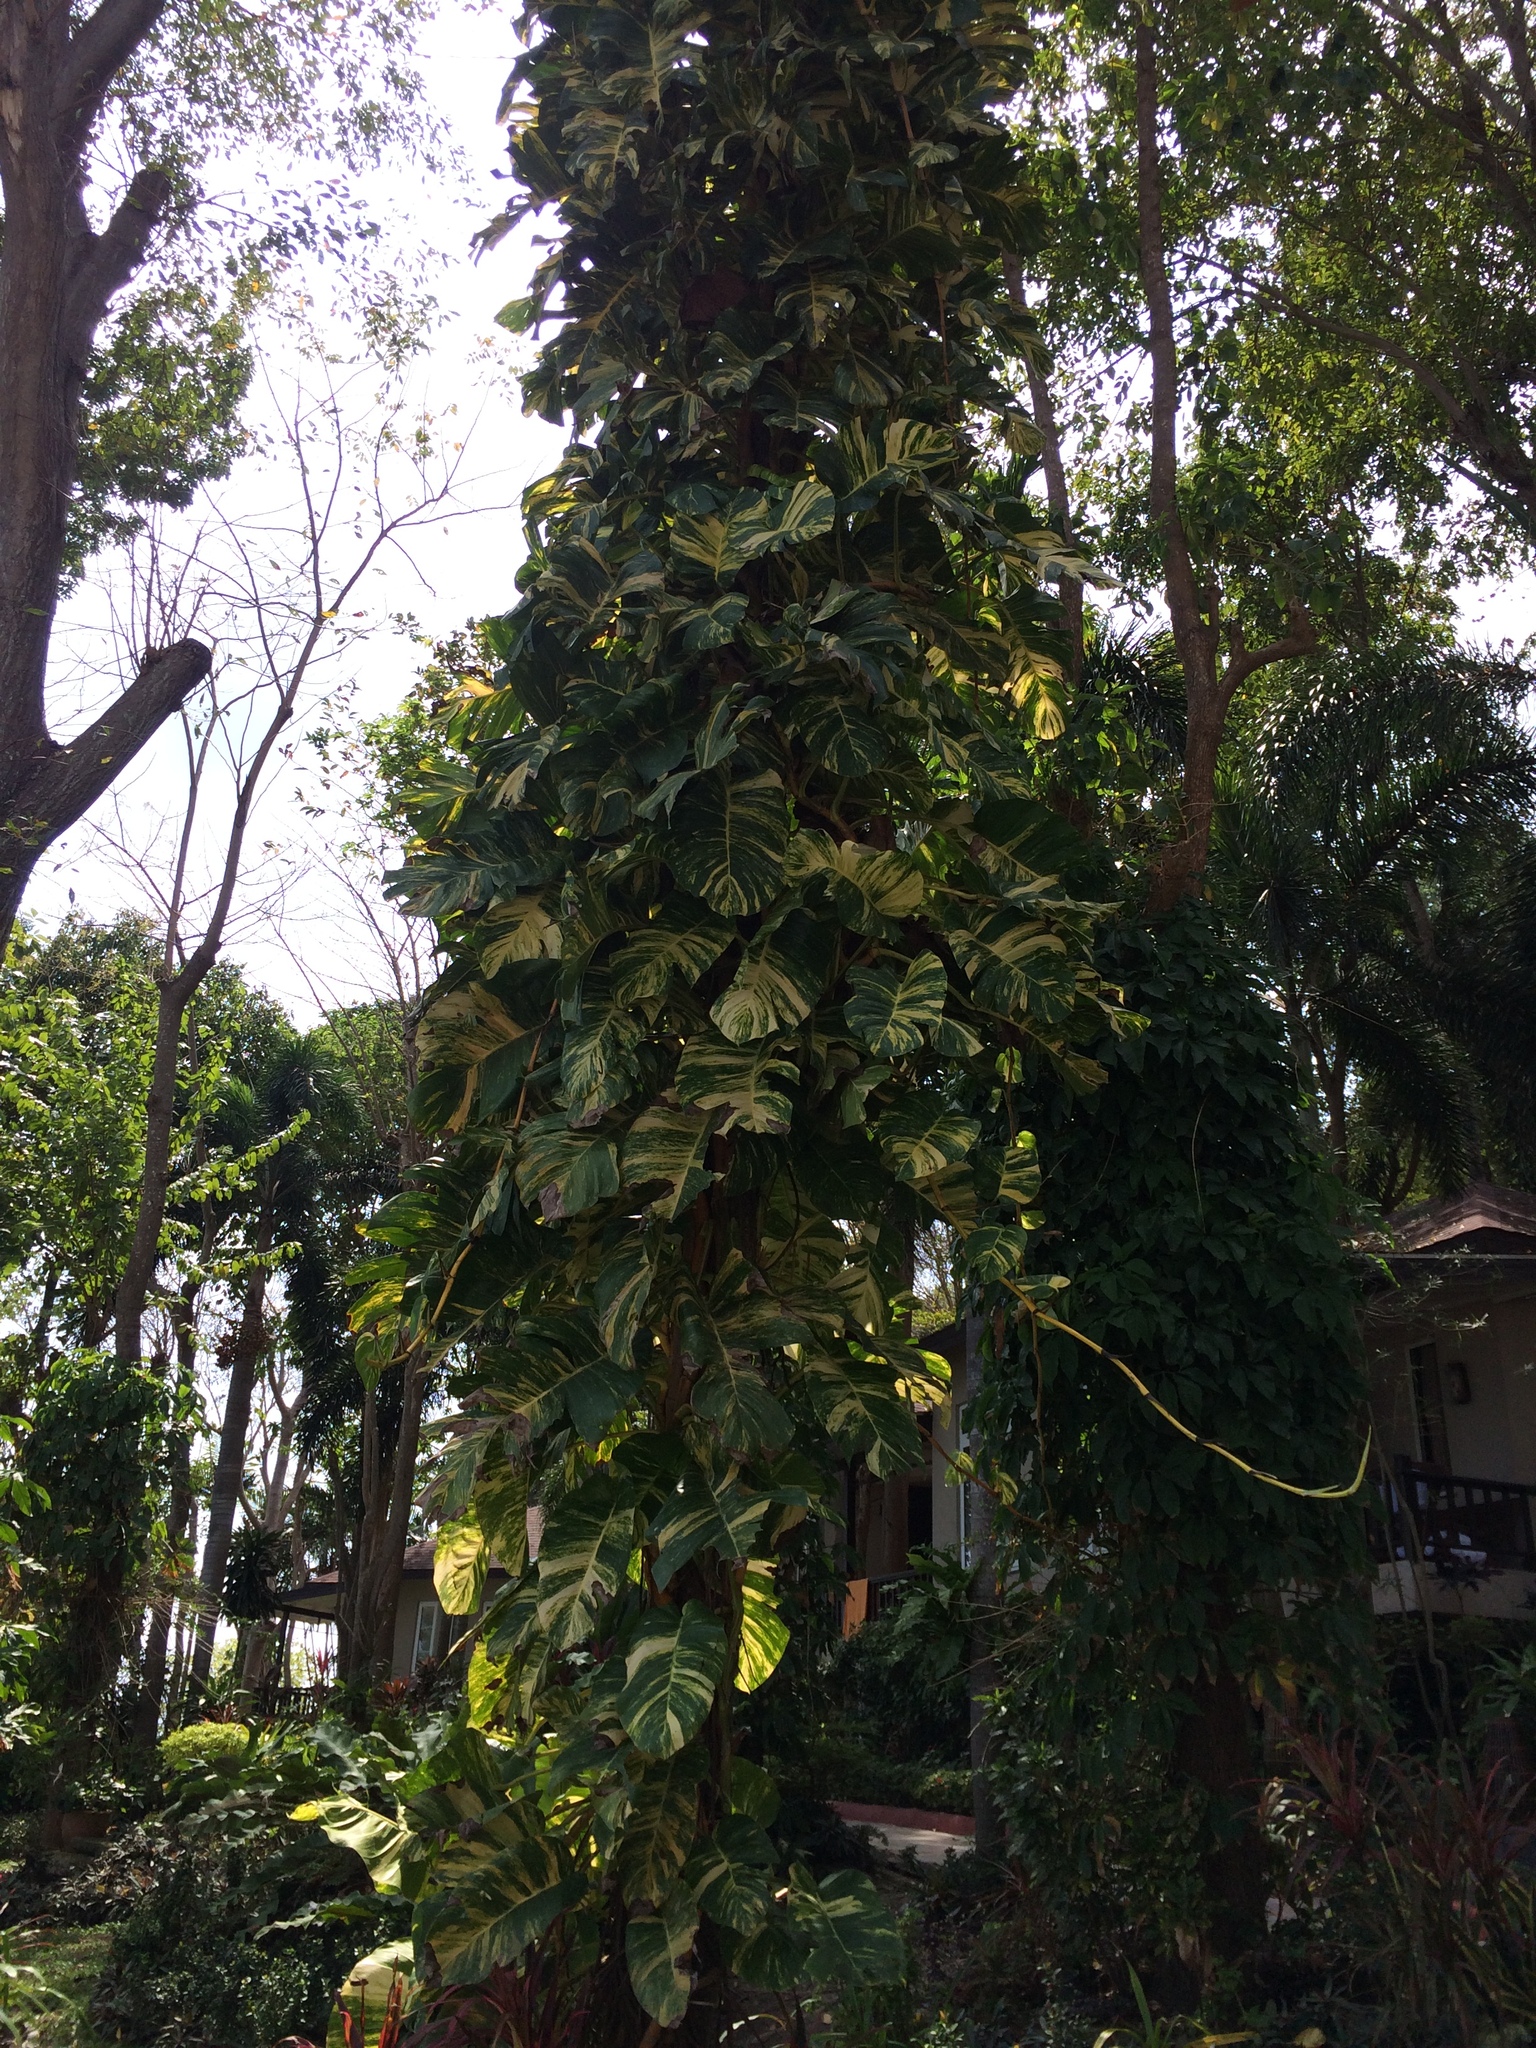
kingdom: Plantae
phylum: Tracheophyta
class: Liliopsida
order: Alismatales
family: Araceae
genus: Epipremnum
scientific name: Epipremnum aureum
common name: Golden hunter's-robe
